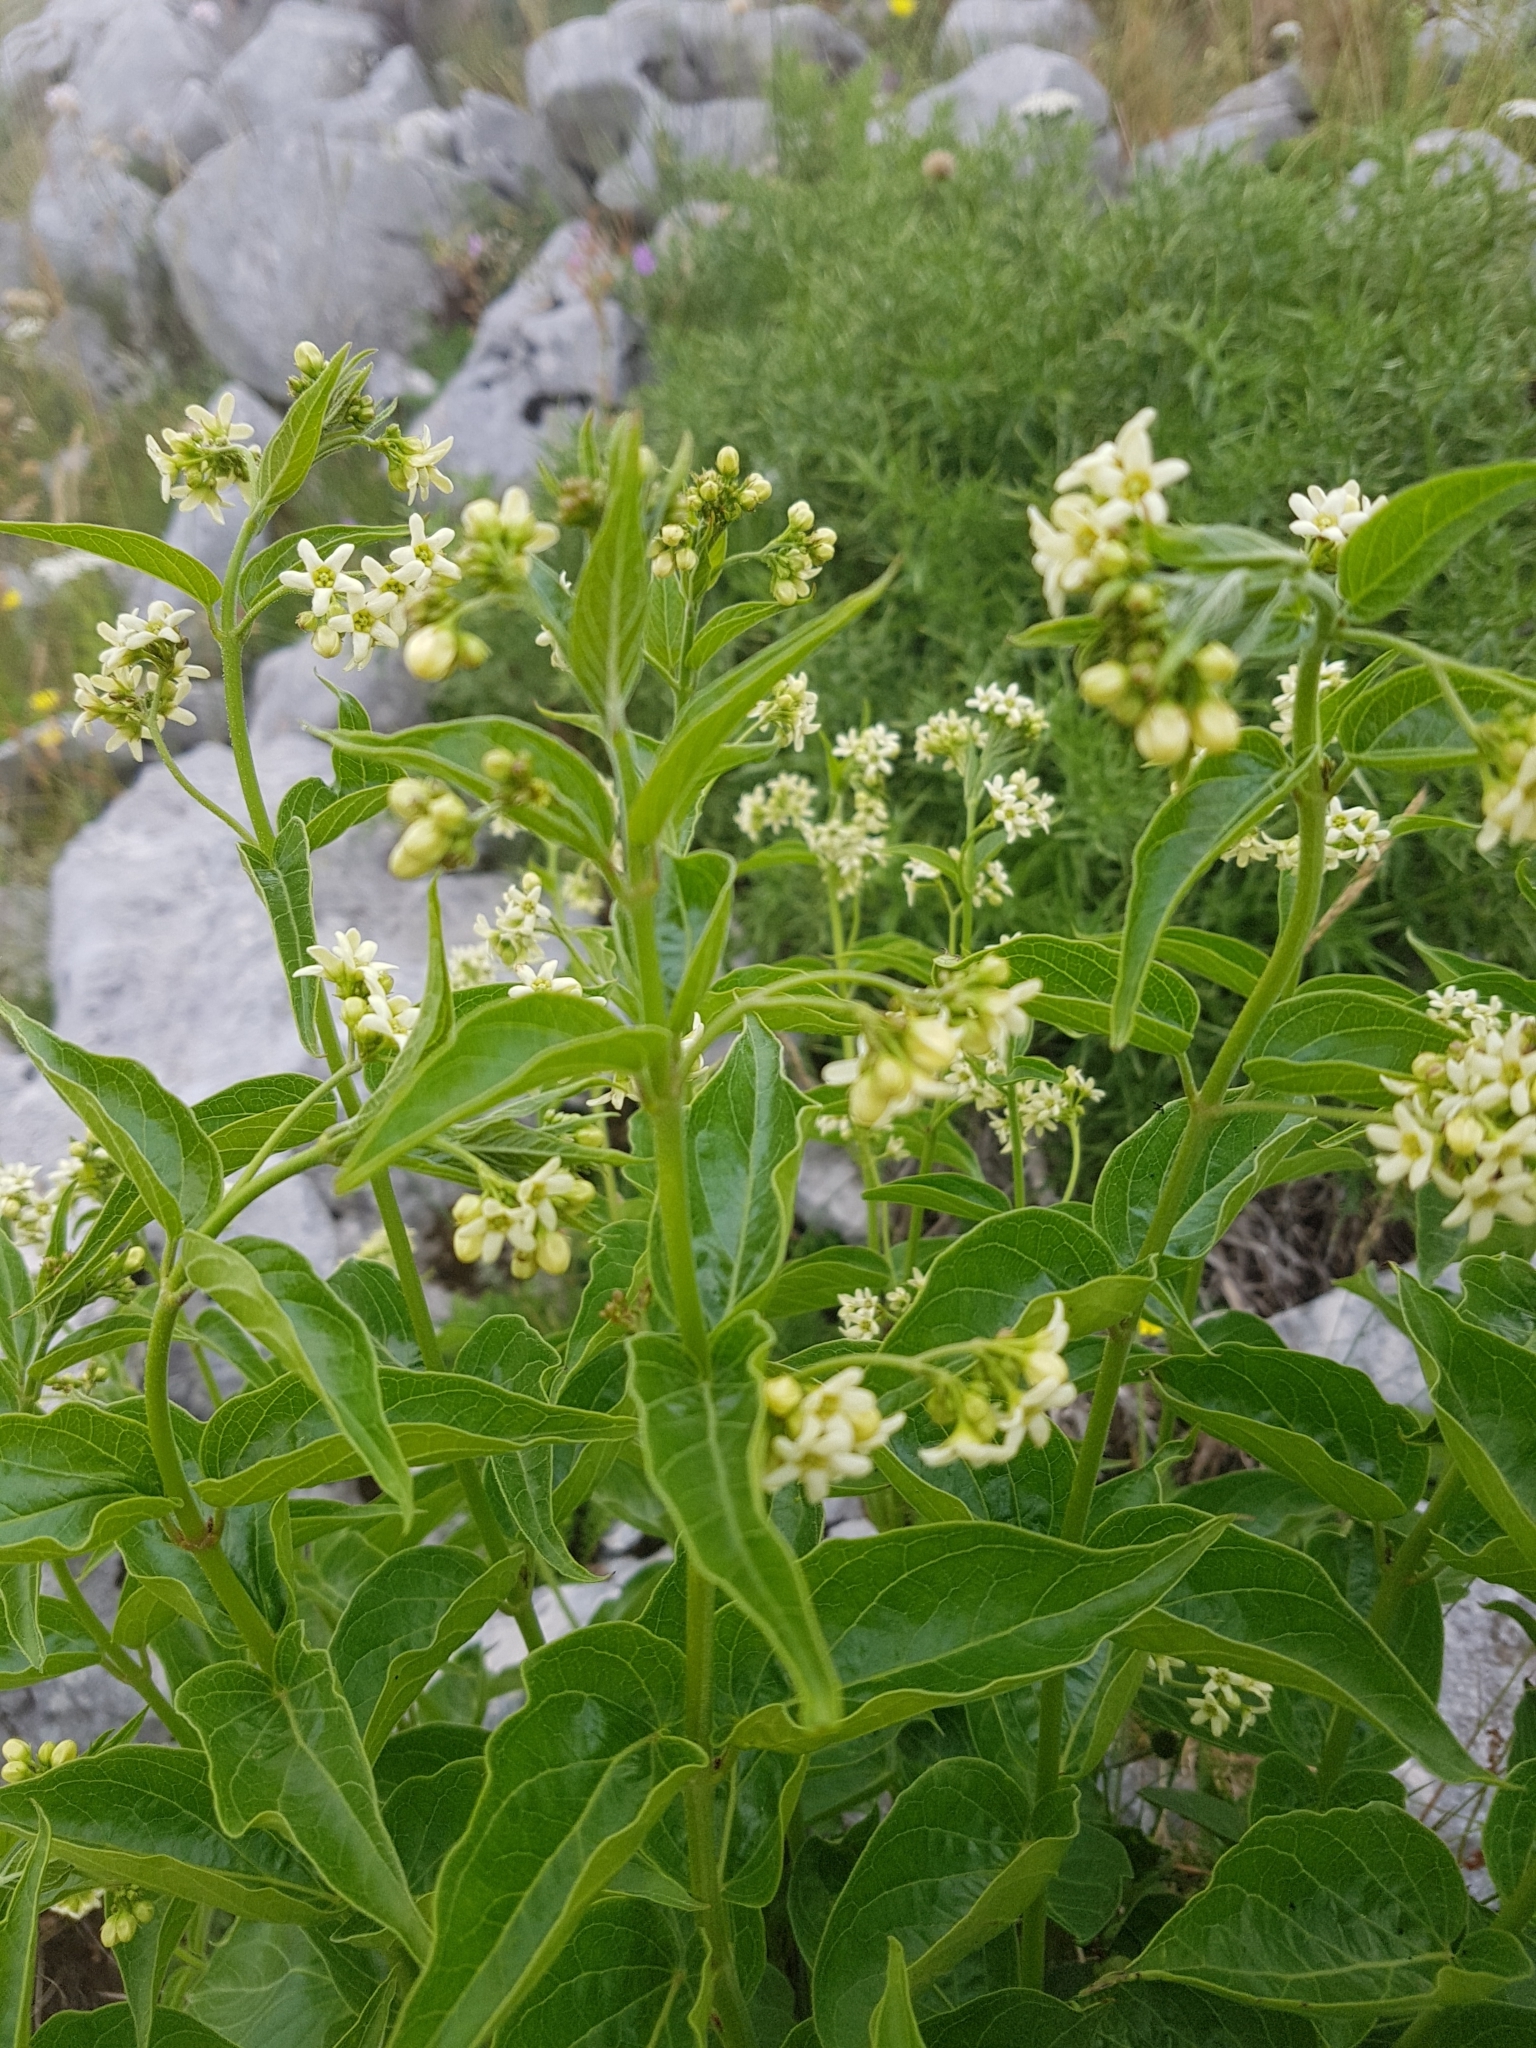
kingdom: Plantae
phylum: Tracheophyta
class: Magnoliopsida
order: Gentianales
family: Apocynaceae
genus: Vincetoxicum
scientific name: Vincetoxicum hirundinaria
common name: White swallowwort
